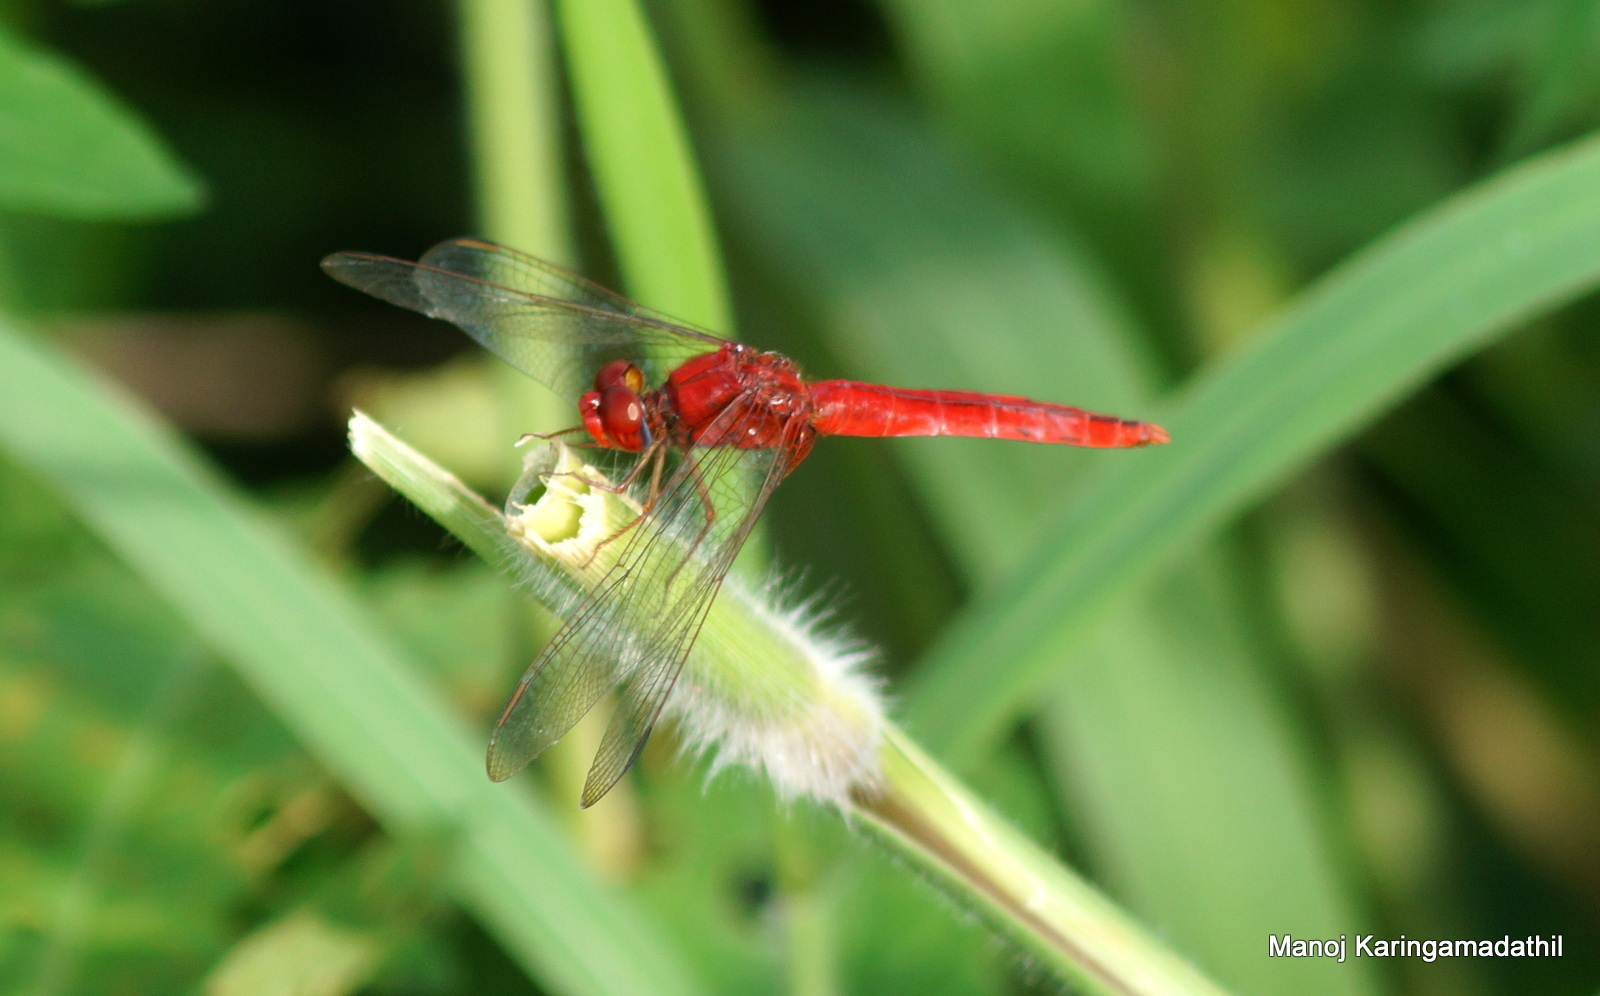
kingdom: Animalia
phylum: Arthropoda
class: Insecta
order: Odonata
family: Libellulidae
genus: Crocothemis
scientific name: Crocothemis servilia
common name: Scarlet skimmer
